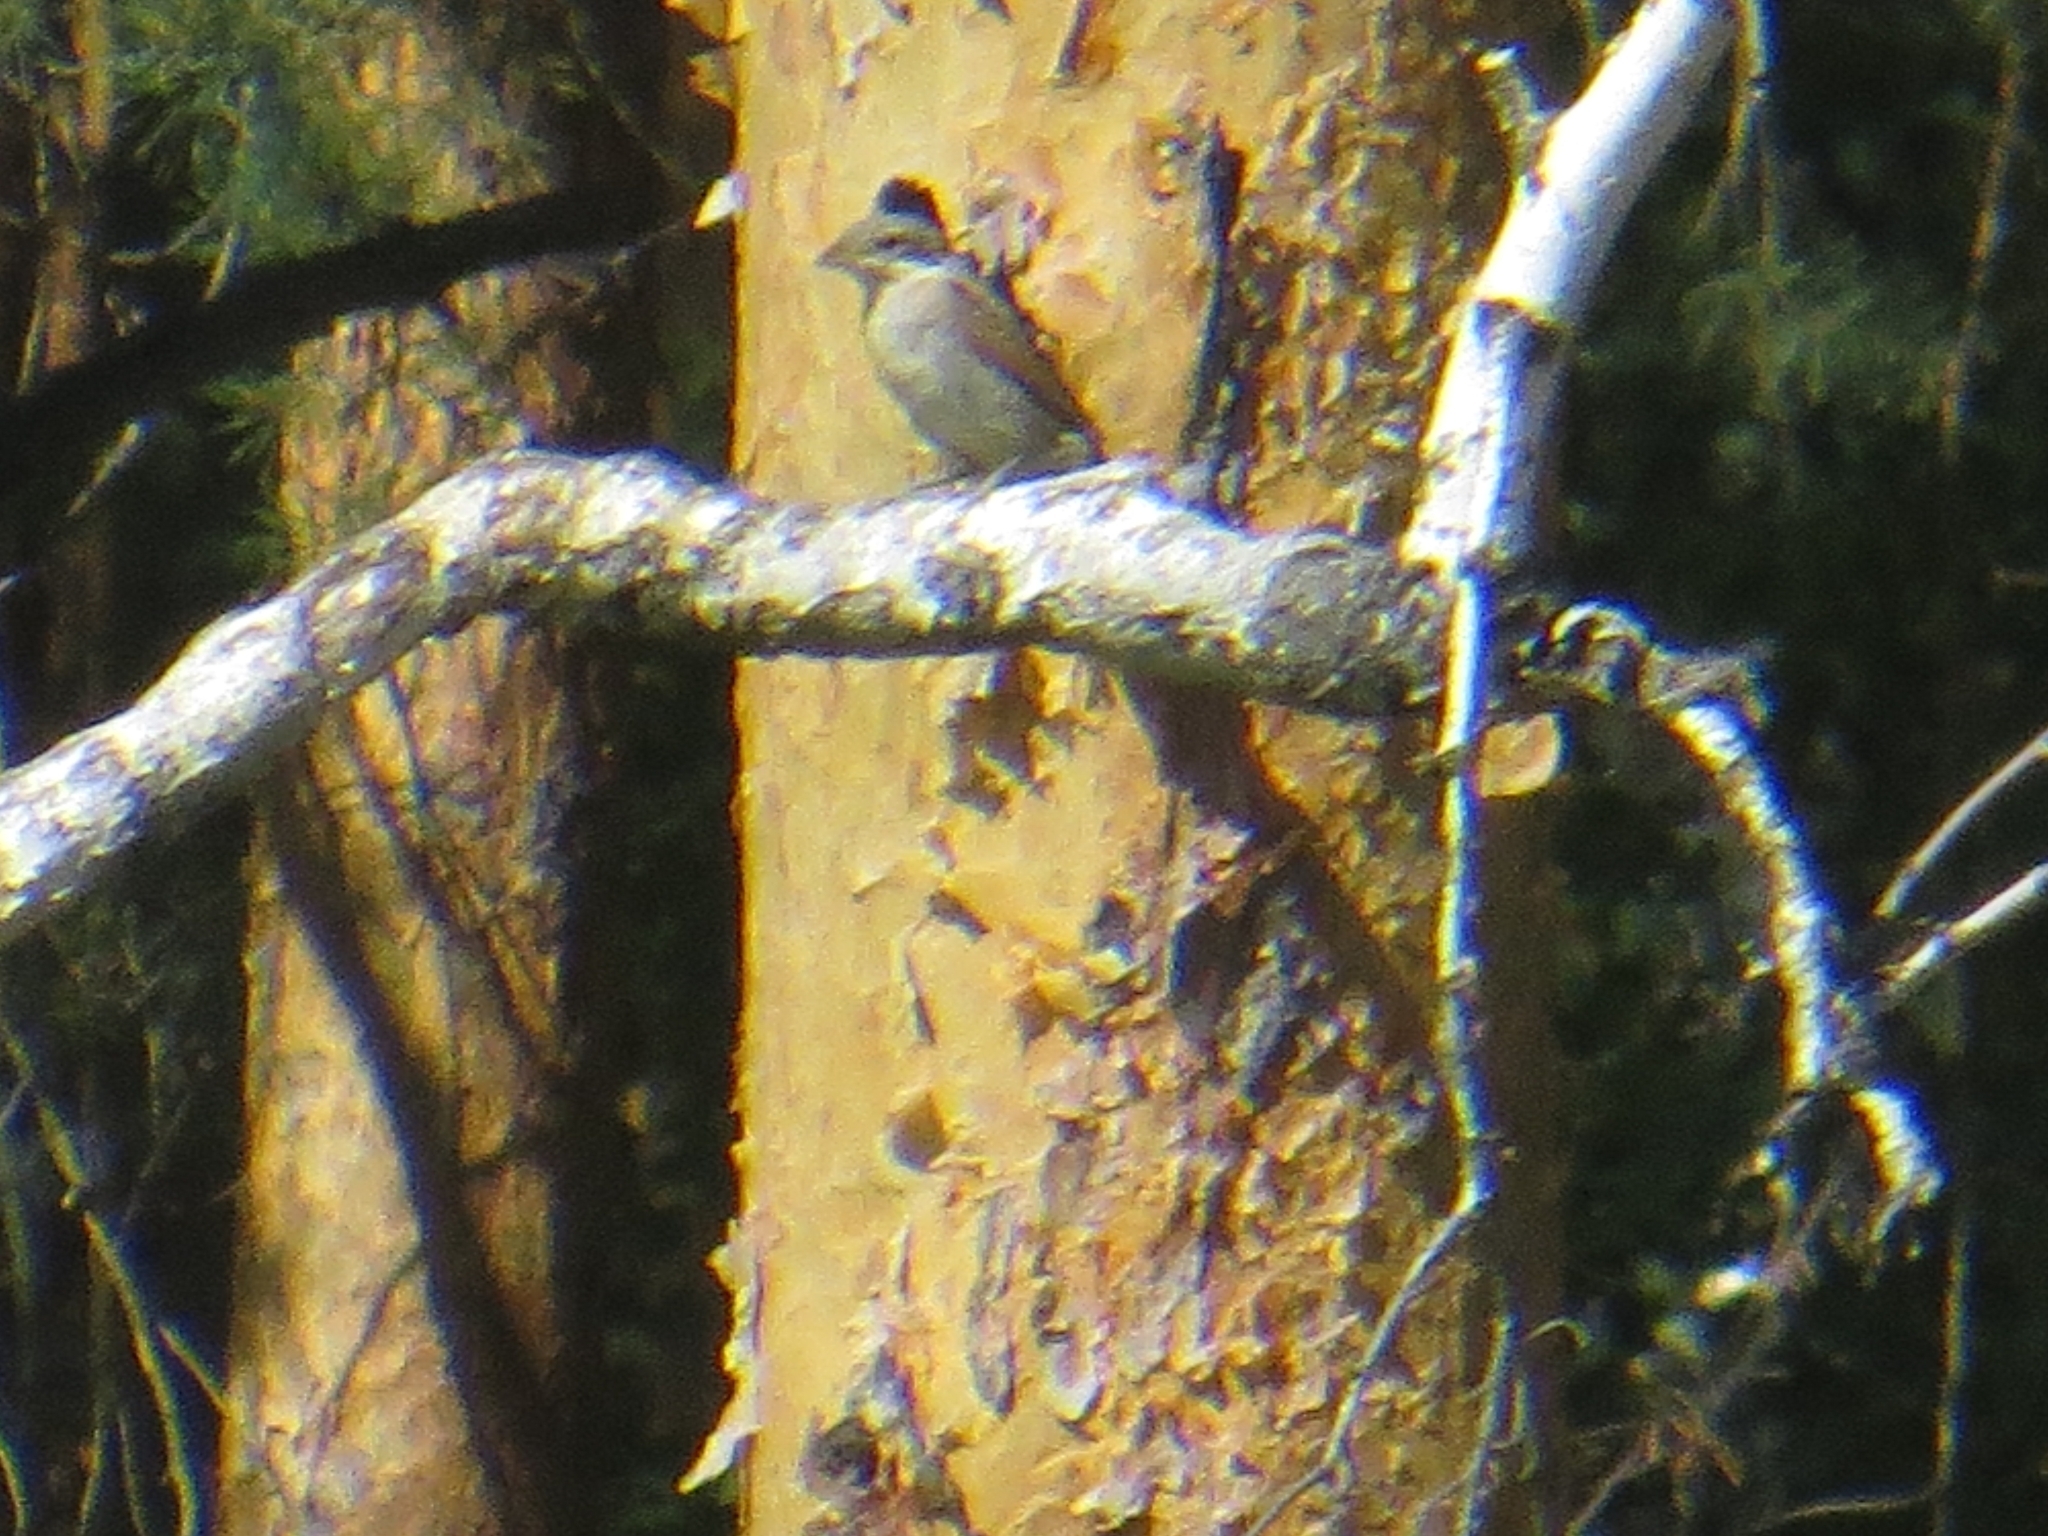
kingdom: Animalia
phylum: Chordata
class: Aves
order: Passeriformes
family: Laniidae
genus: Lanius
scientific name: Lanius collurio
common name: Red-backed shrike
